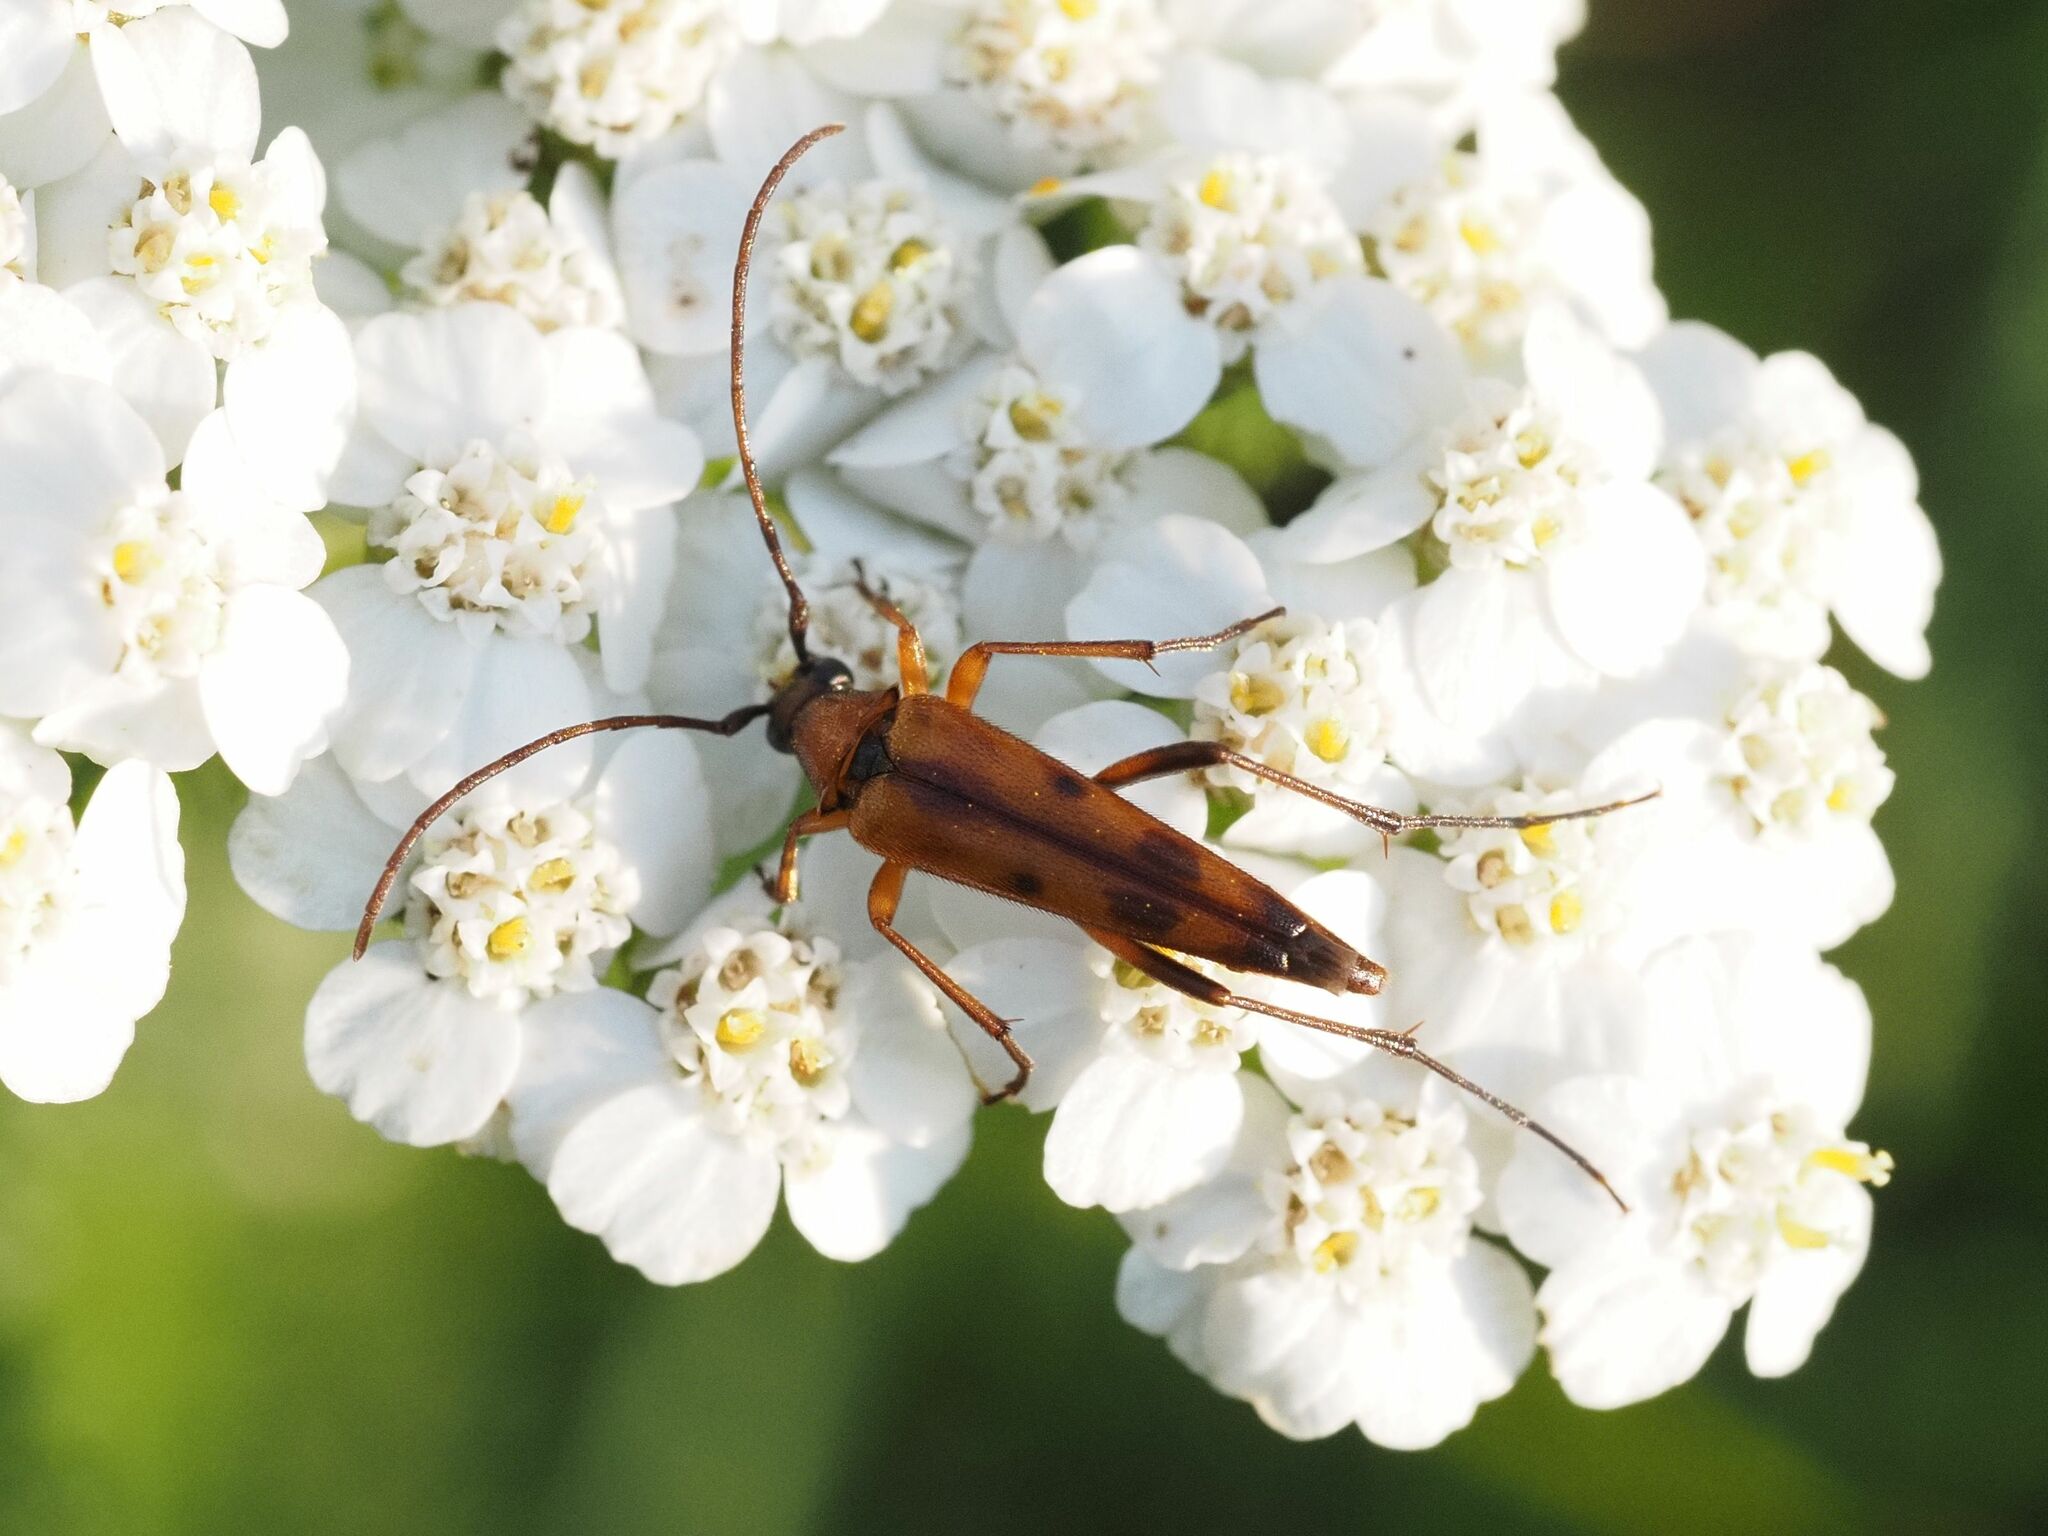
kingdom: Animalia
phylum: Arthropoda
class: Insecta
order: Coleoptera
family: Cerambycidae
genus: Stenurella
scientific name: Stenurella septempunctata
